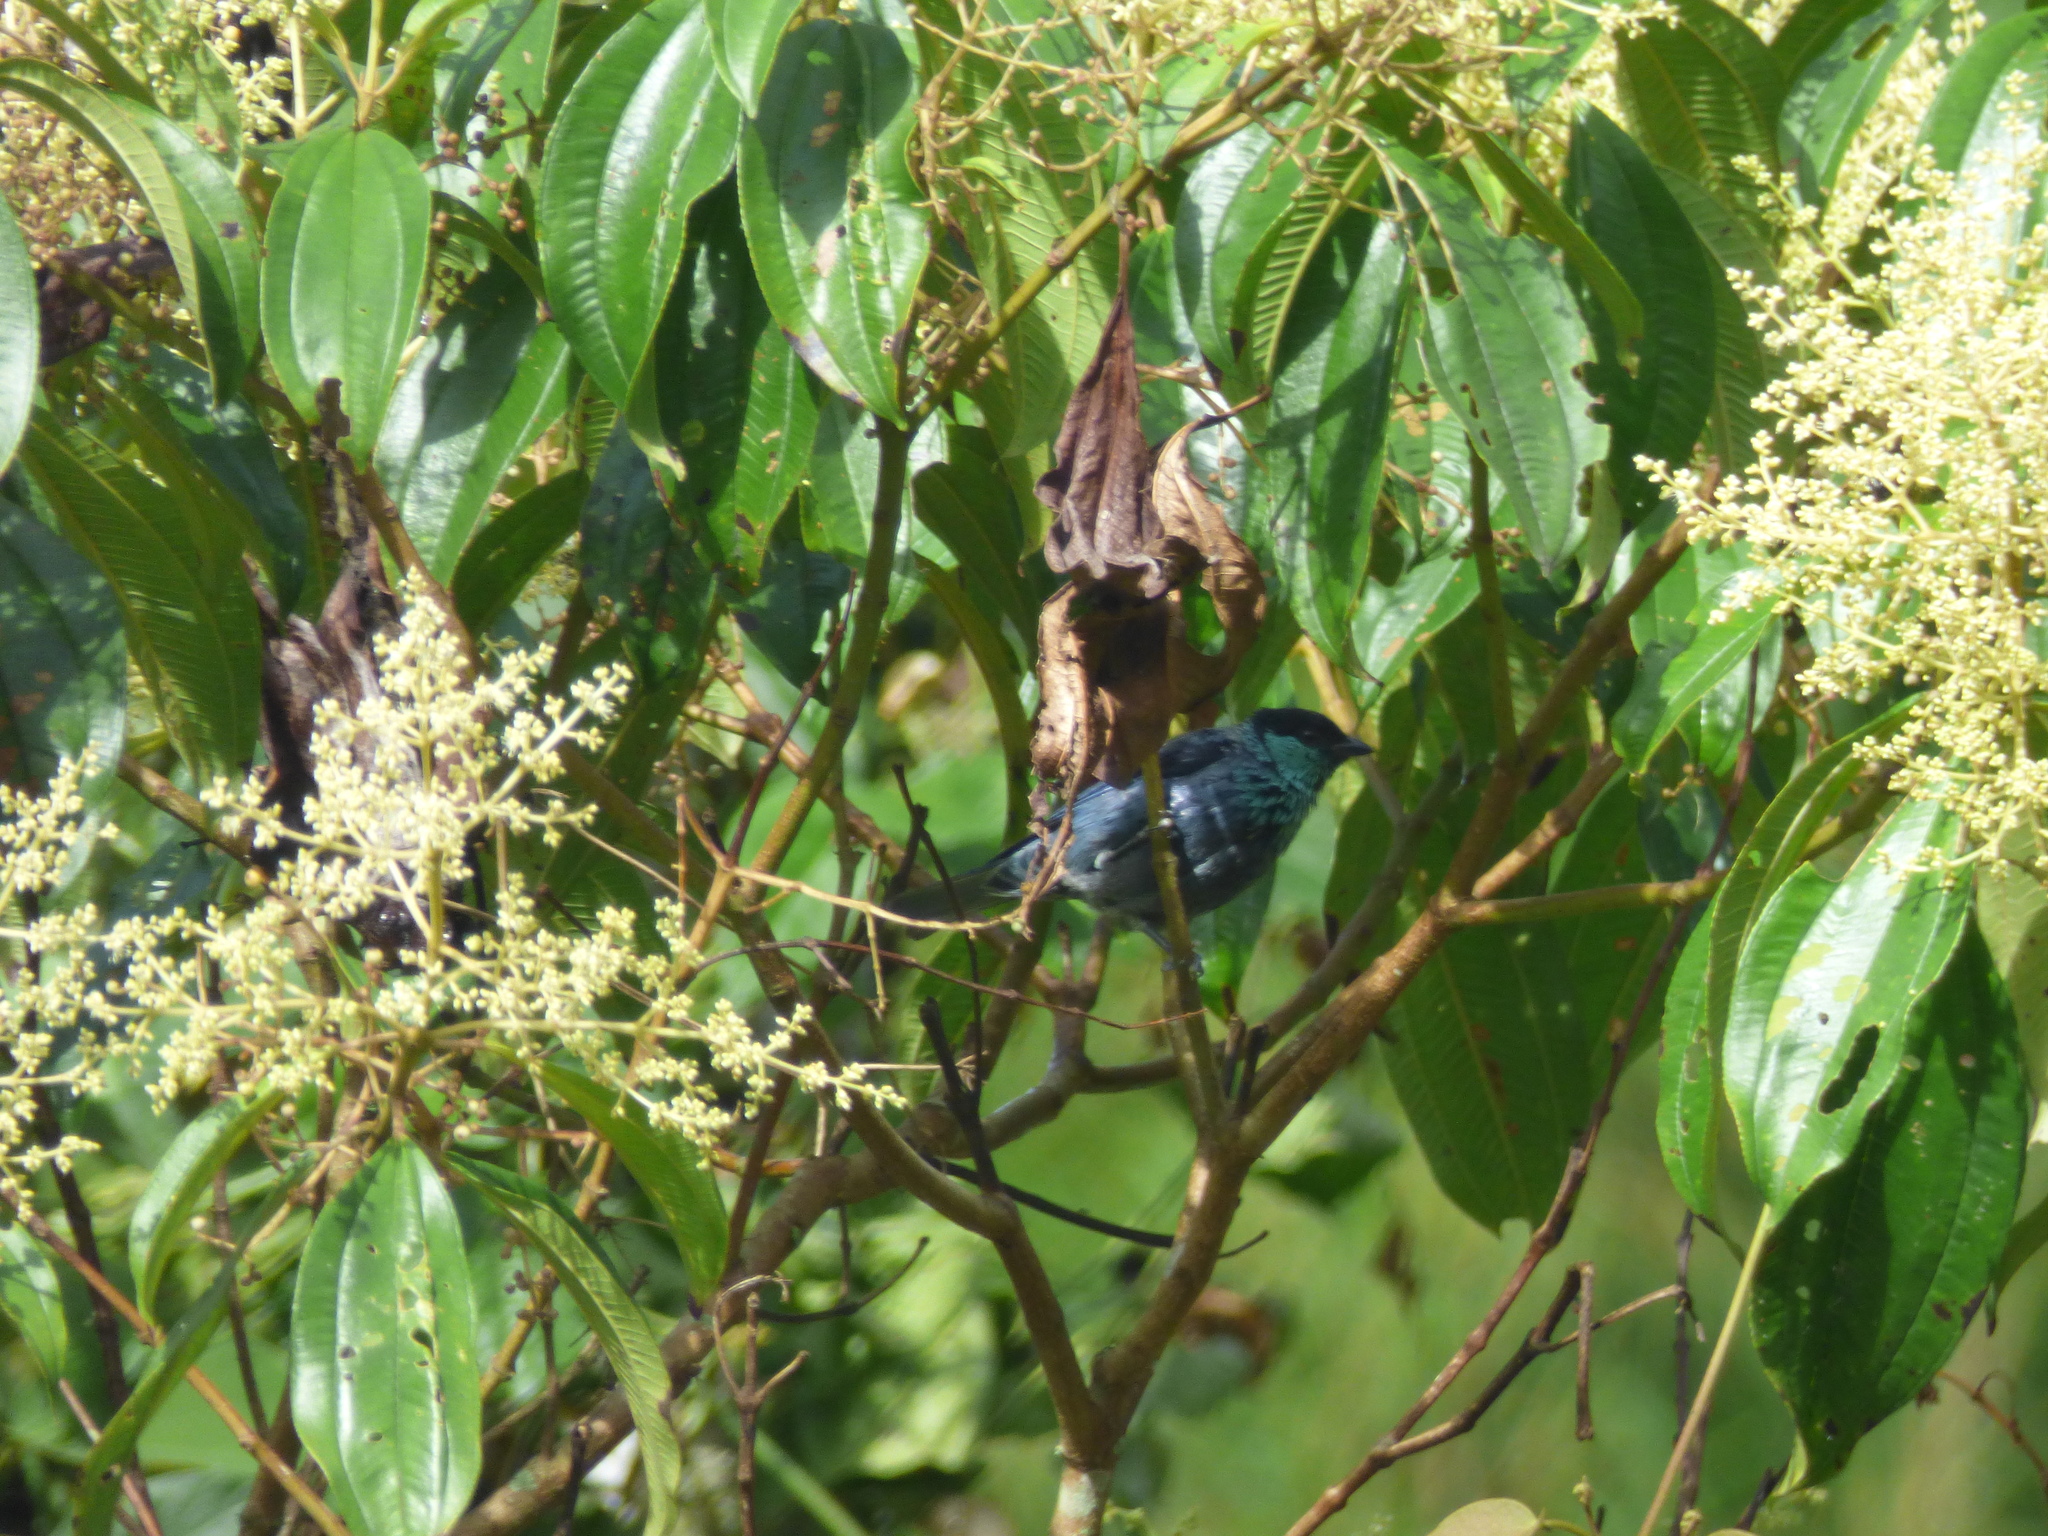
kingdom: Animalia
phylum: Chordata
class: Aves
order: Passeriformes
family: Thraupidae
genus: Stilpnia
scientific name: Stilpnia heinei
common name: Black-capped tanager
